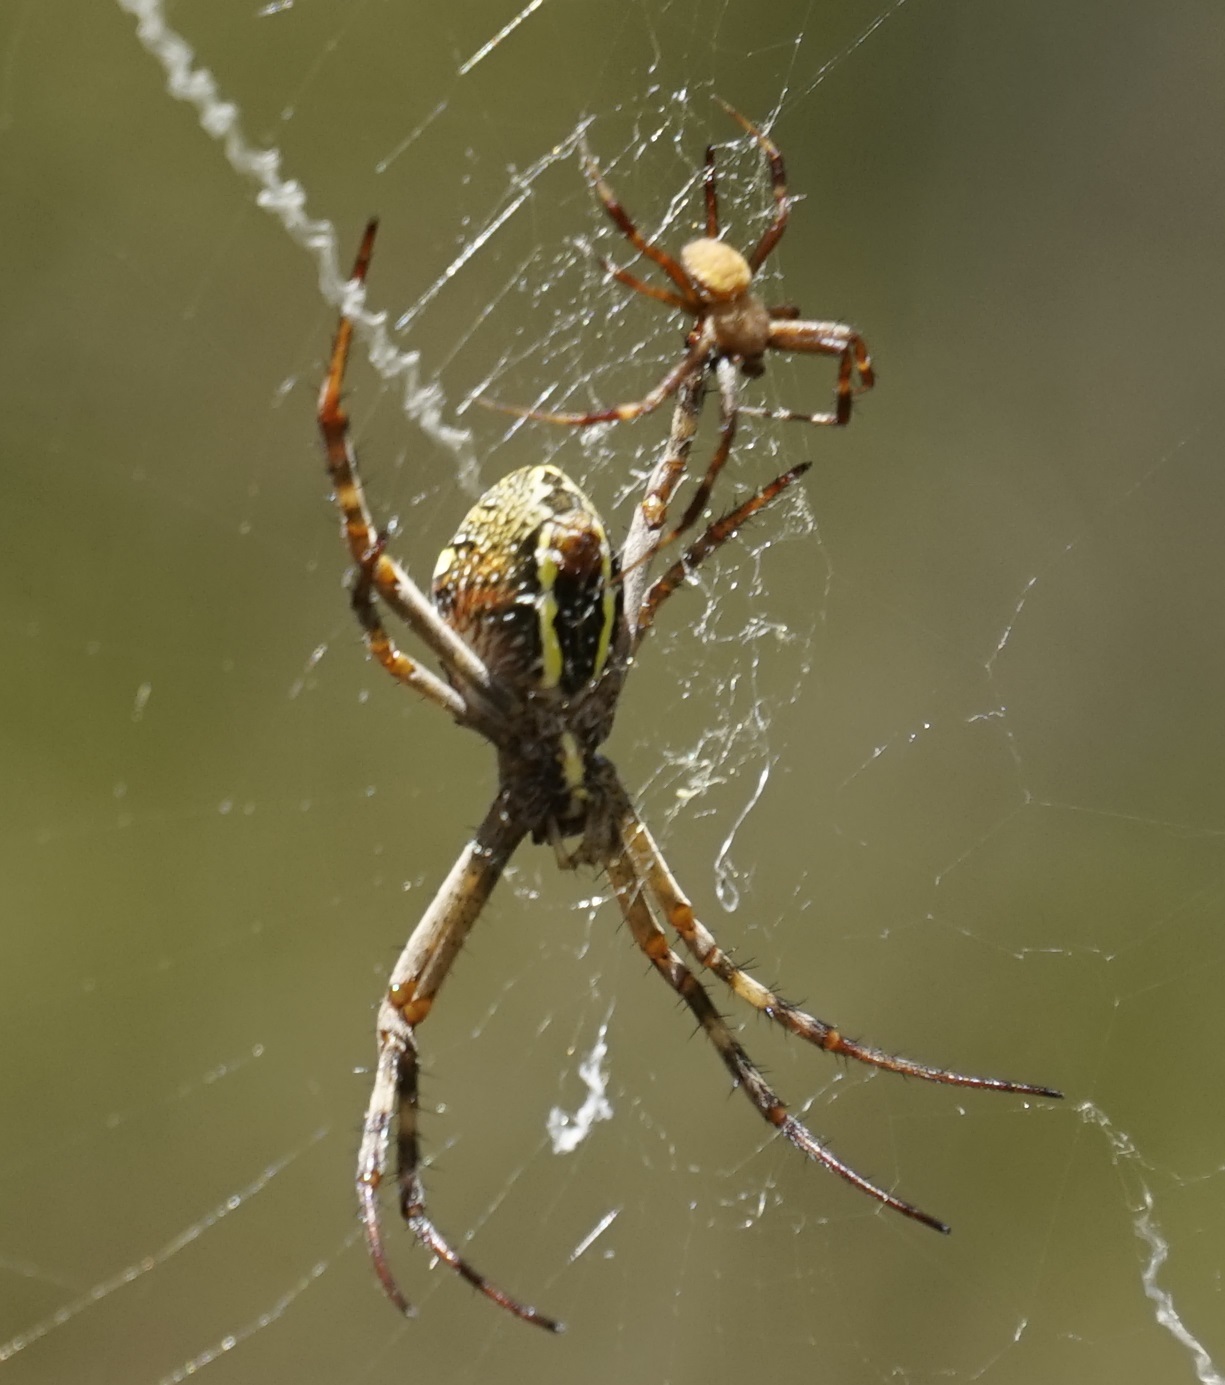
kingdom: Animalia
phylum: Arthropoda
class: Arachnida
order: Araneae
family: Araneidae
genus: Argiope
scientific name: Argiope keyserlingi
